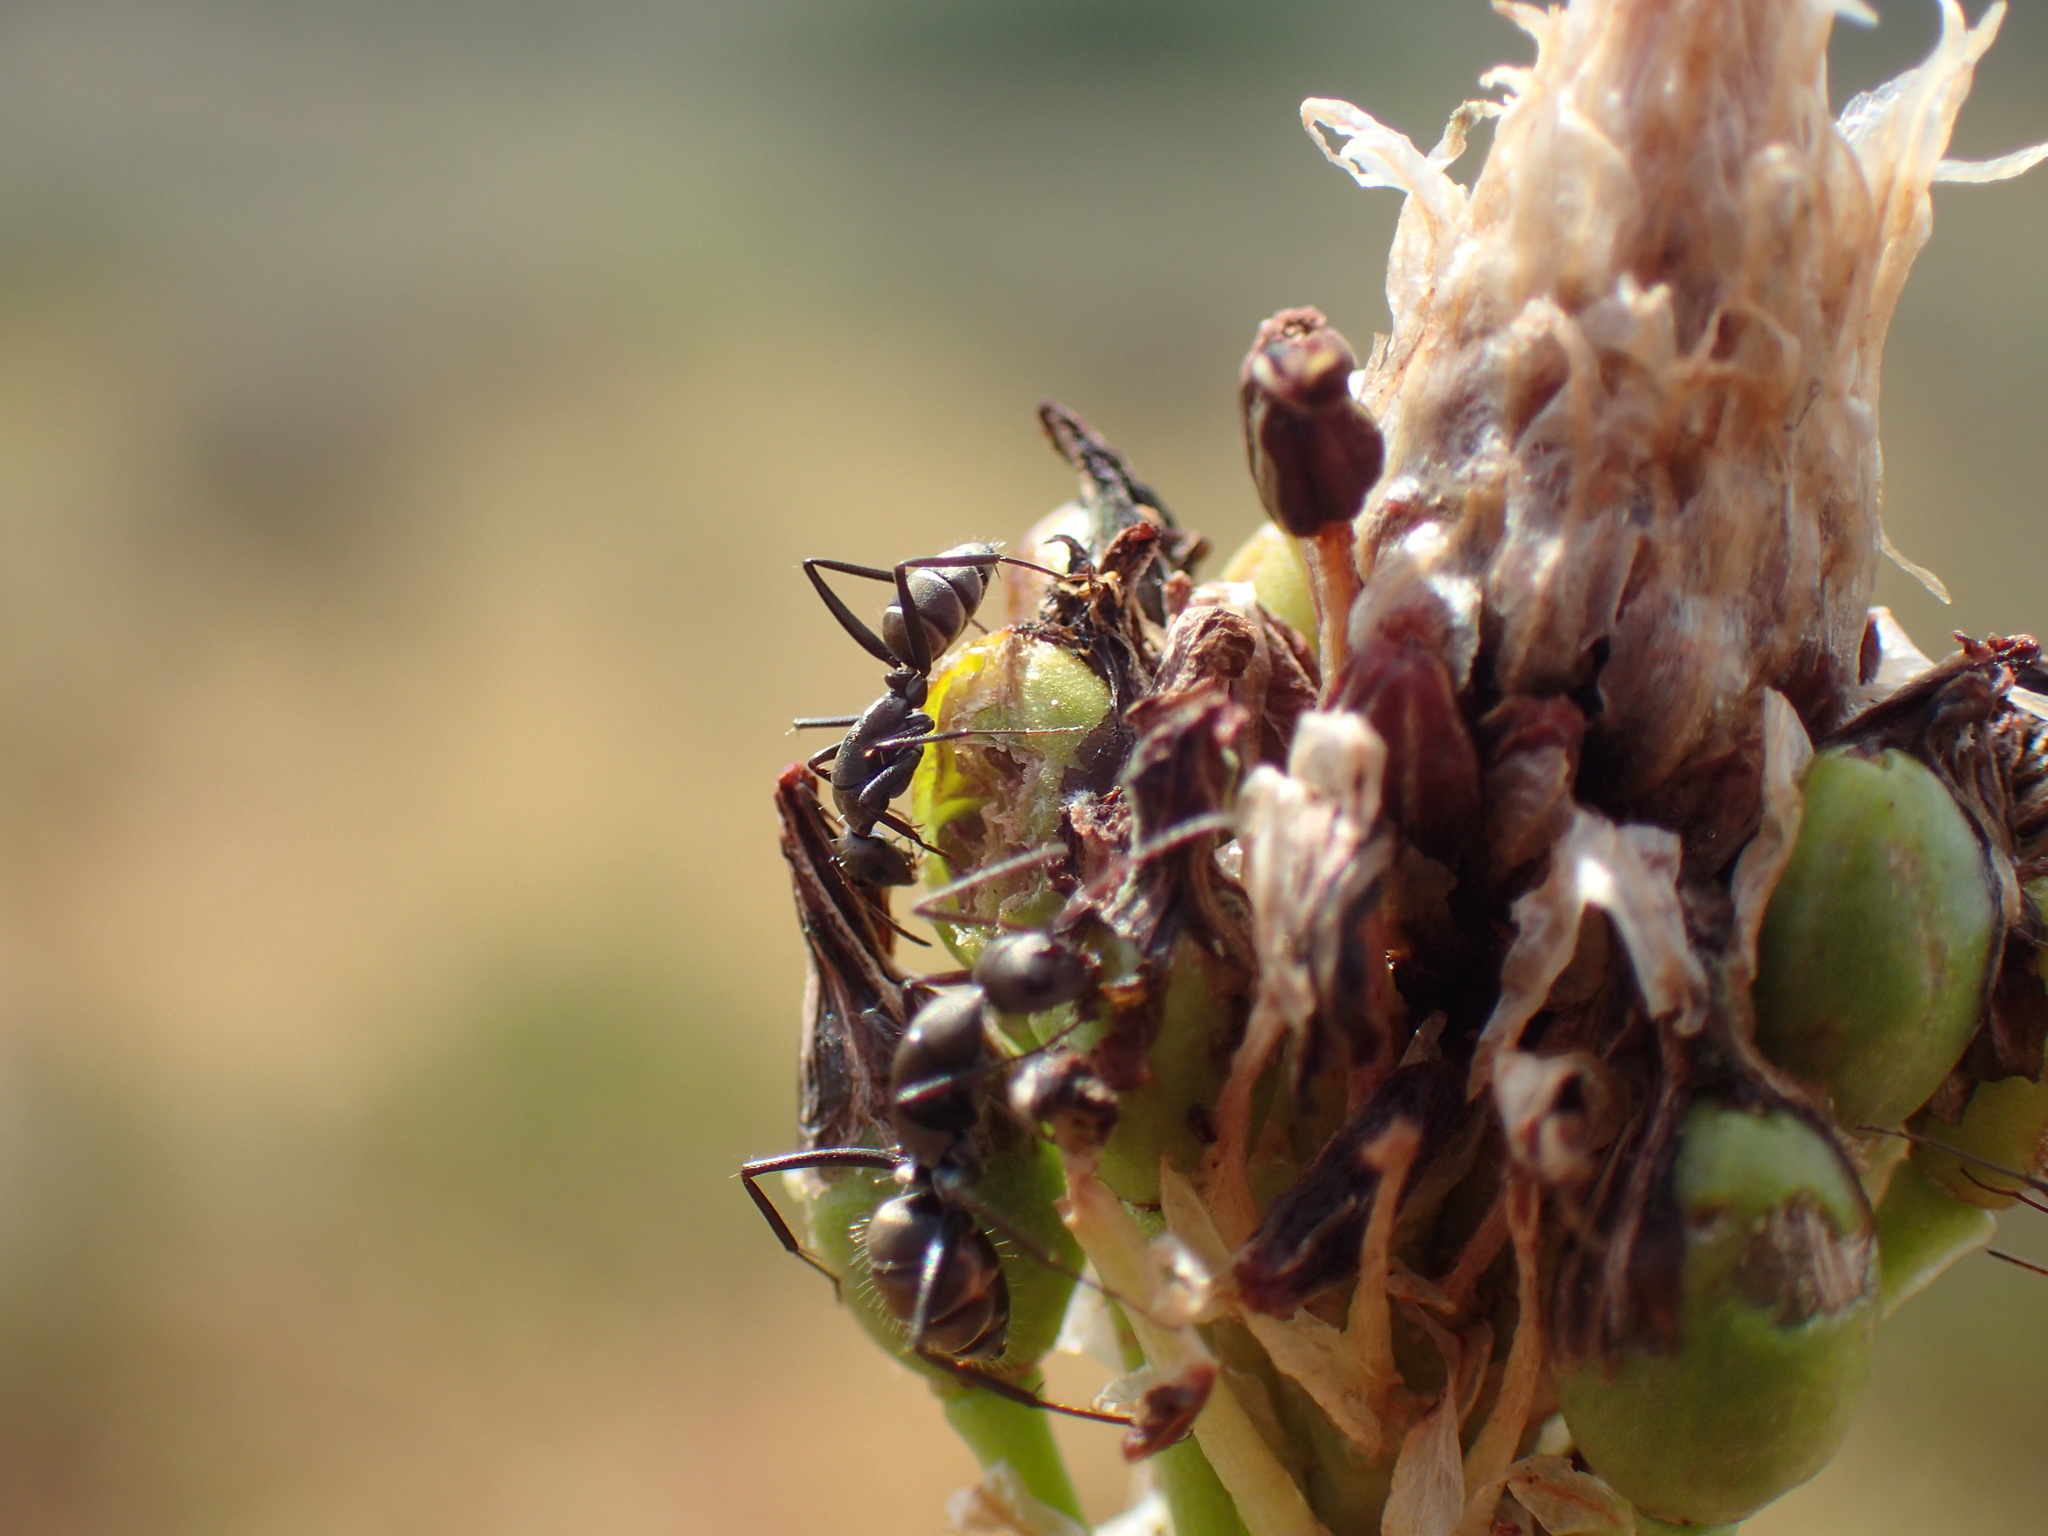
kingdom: Animalia
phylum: Arthropoda
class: Insecta
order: Hymenoptera
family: Formicidae
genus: Camponotus
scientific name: Camponotus cinctellus
